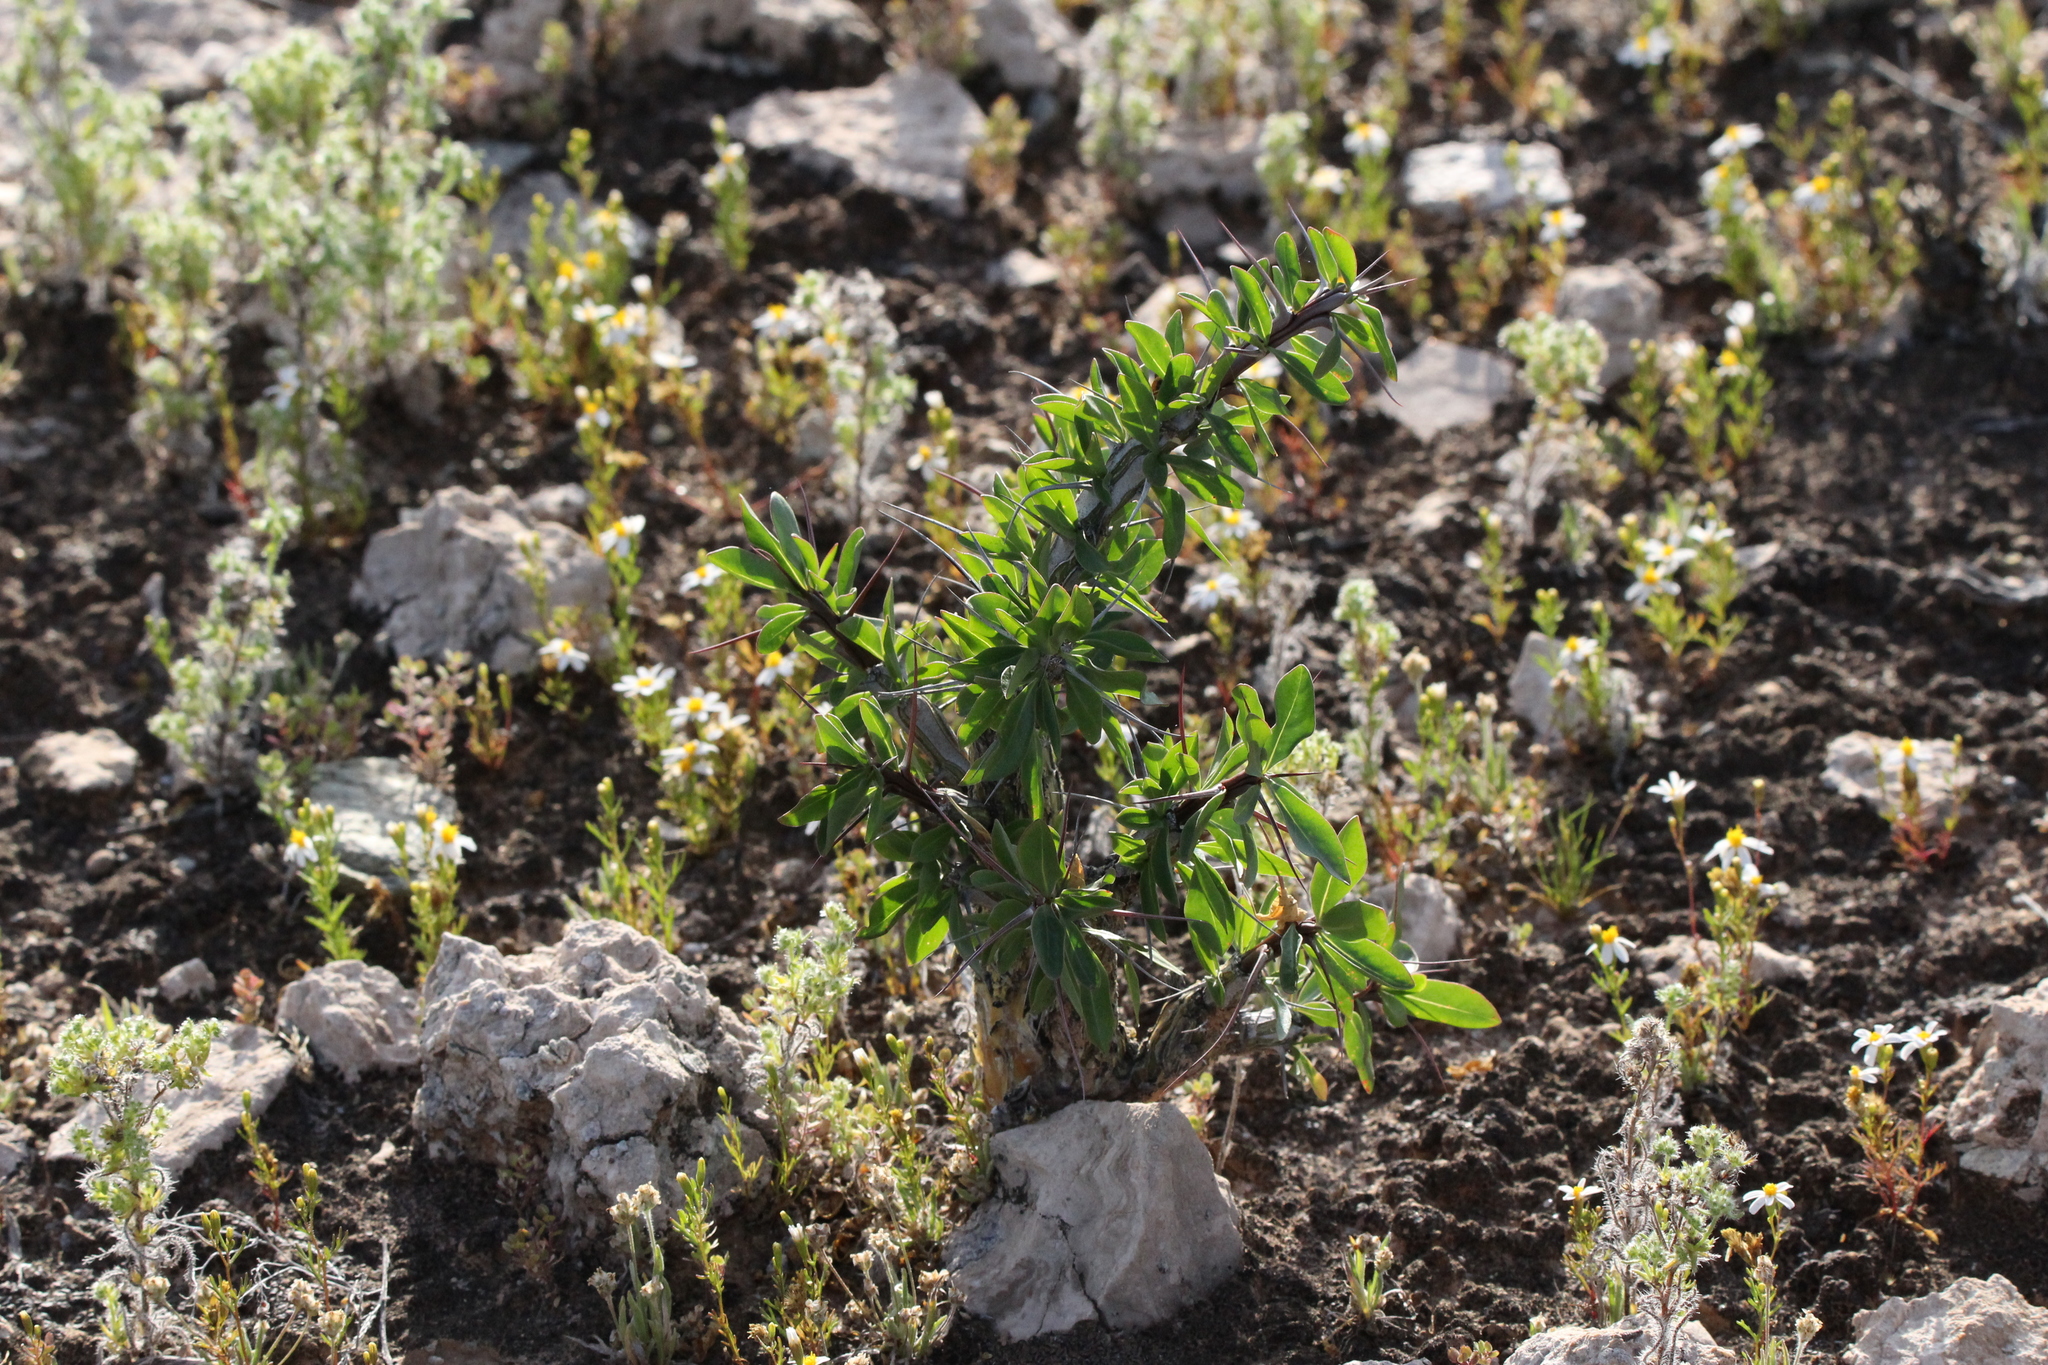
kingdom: Plantae
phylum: Tracheophyta
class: Magnoliopsida
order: Ericales
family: Fouquieriaceae
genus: Fouquieria
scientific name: Fouquieria splendens
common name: Vine-cactus
